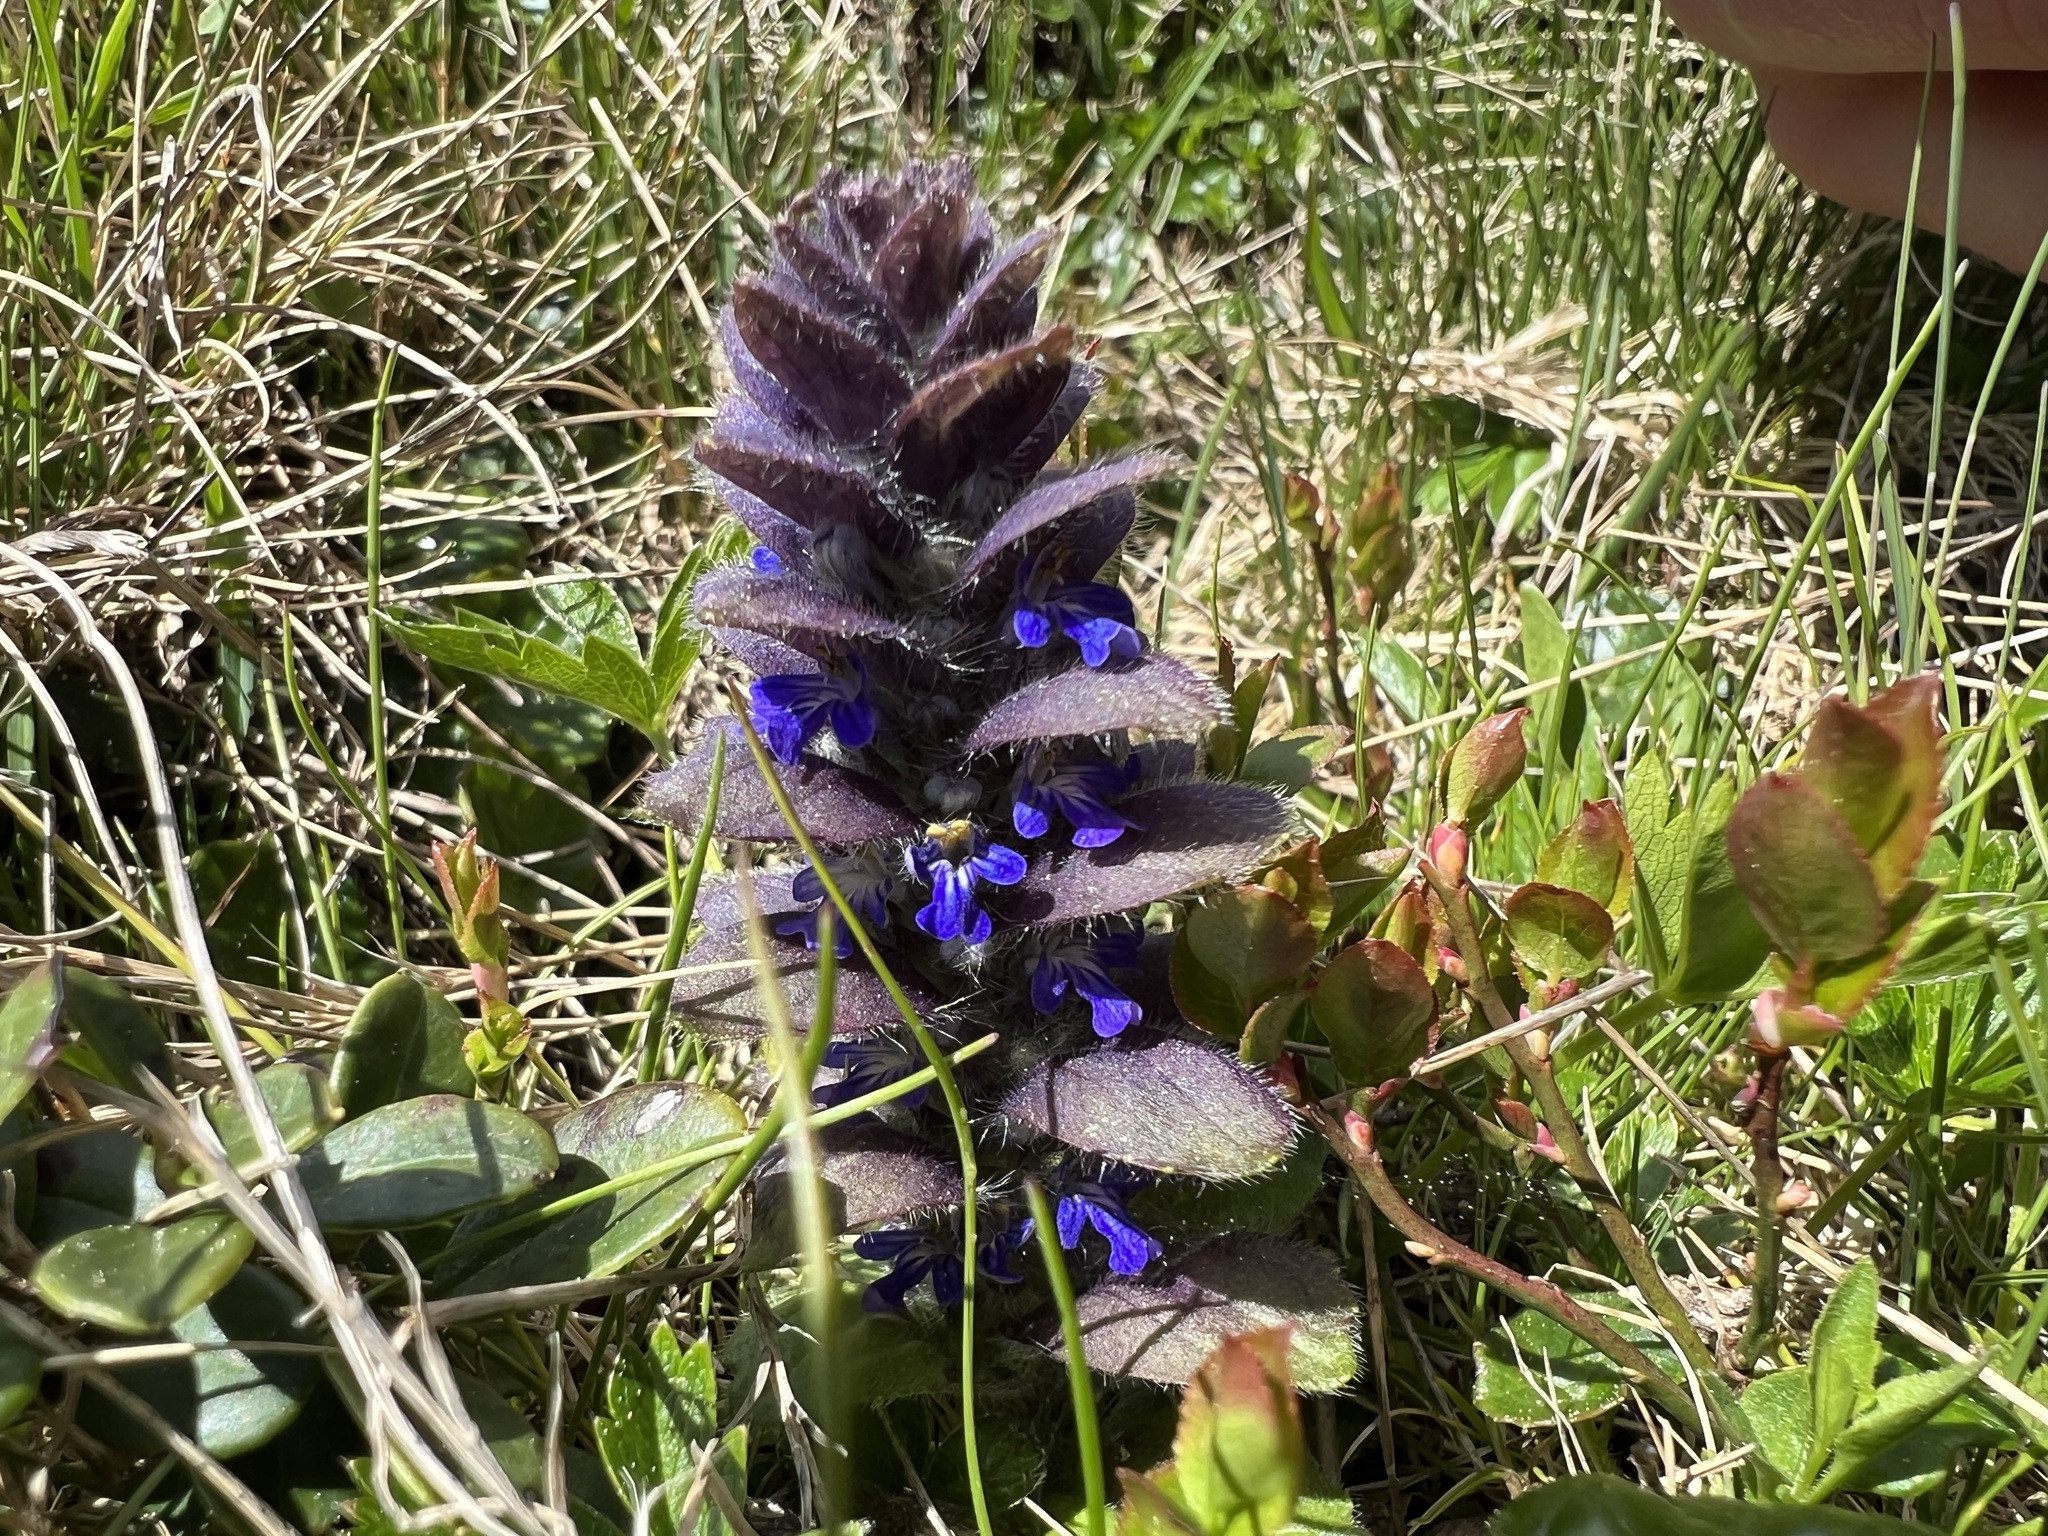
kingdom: Plantae
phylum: Tracheophyta
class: Magnoliopsida
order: Lamiales
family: Lamiaceae
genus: Ajuga
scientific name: Ajuga pyramidalis
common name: Pyramid bugle
